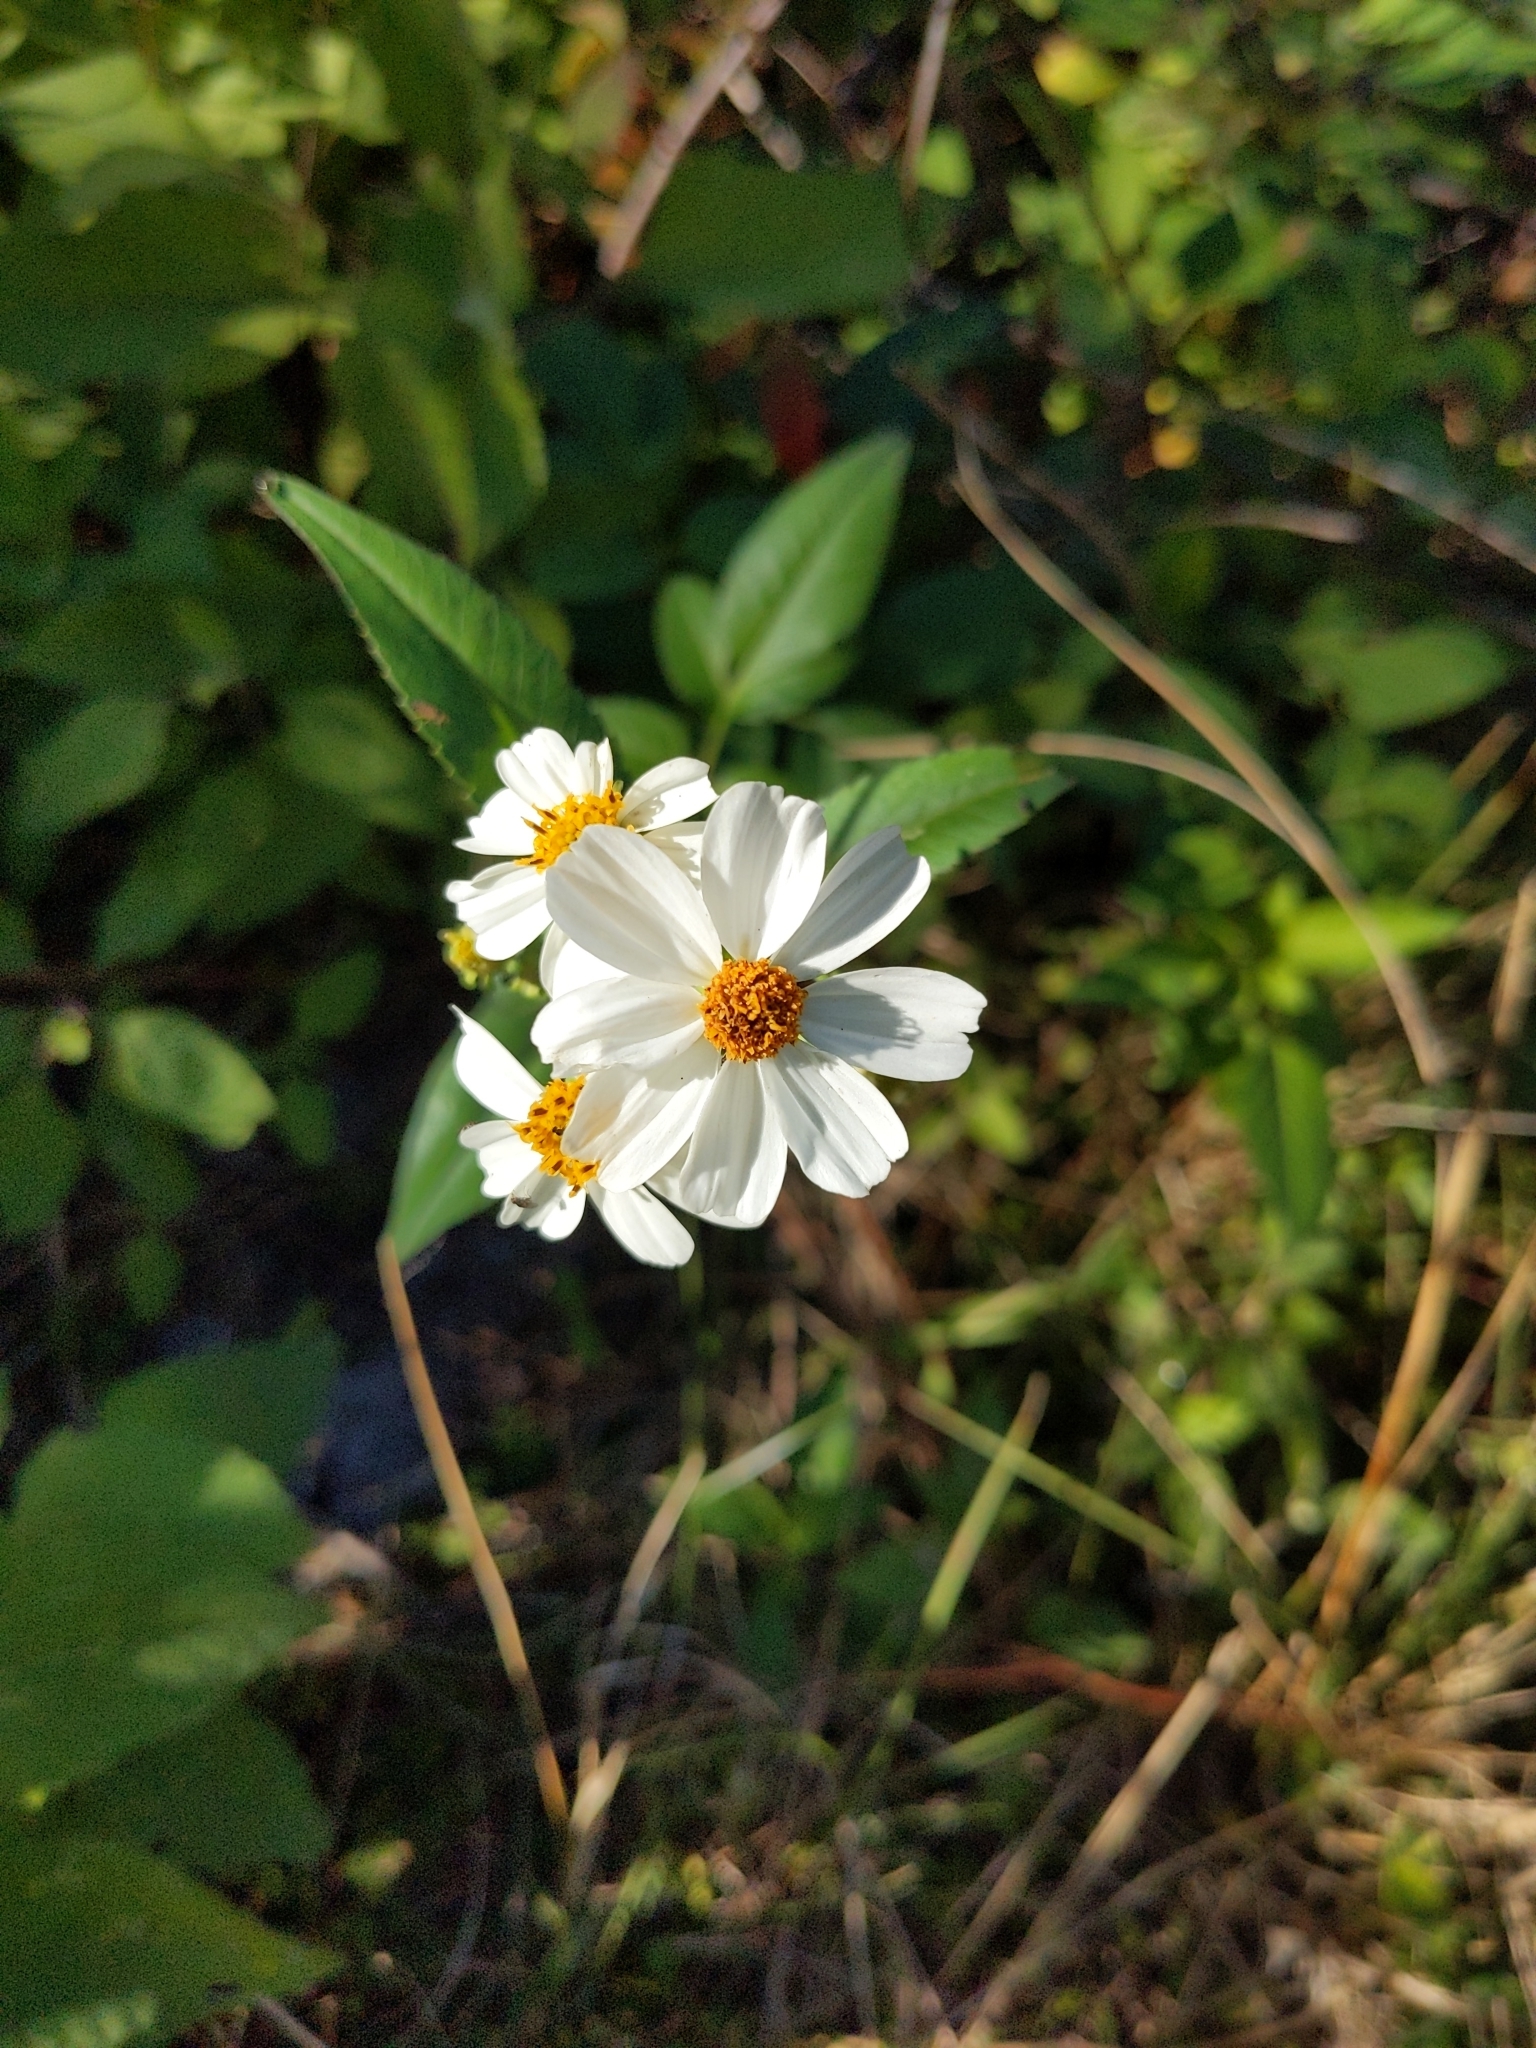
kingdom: Plantae
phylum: Tracheophyta
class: Magnoliopsida
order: Asterales
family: Asteraceae
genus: Bidens
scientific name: Bidens alba
